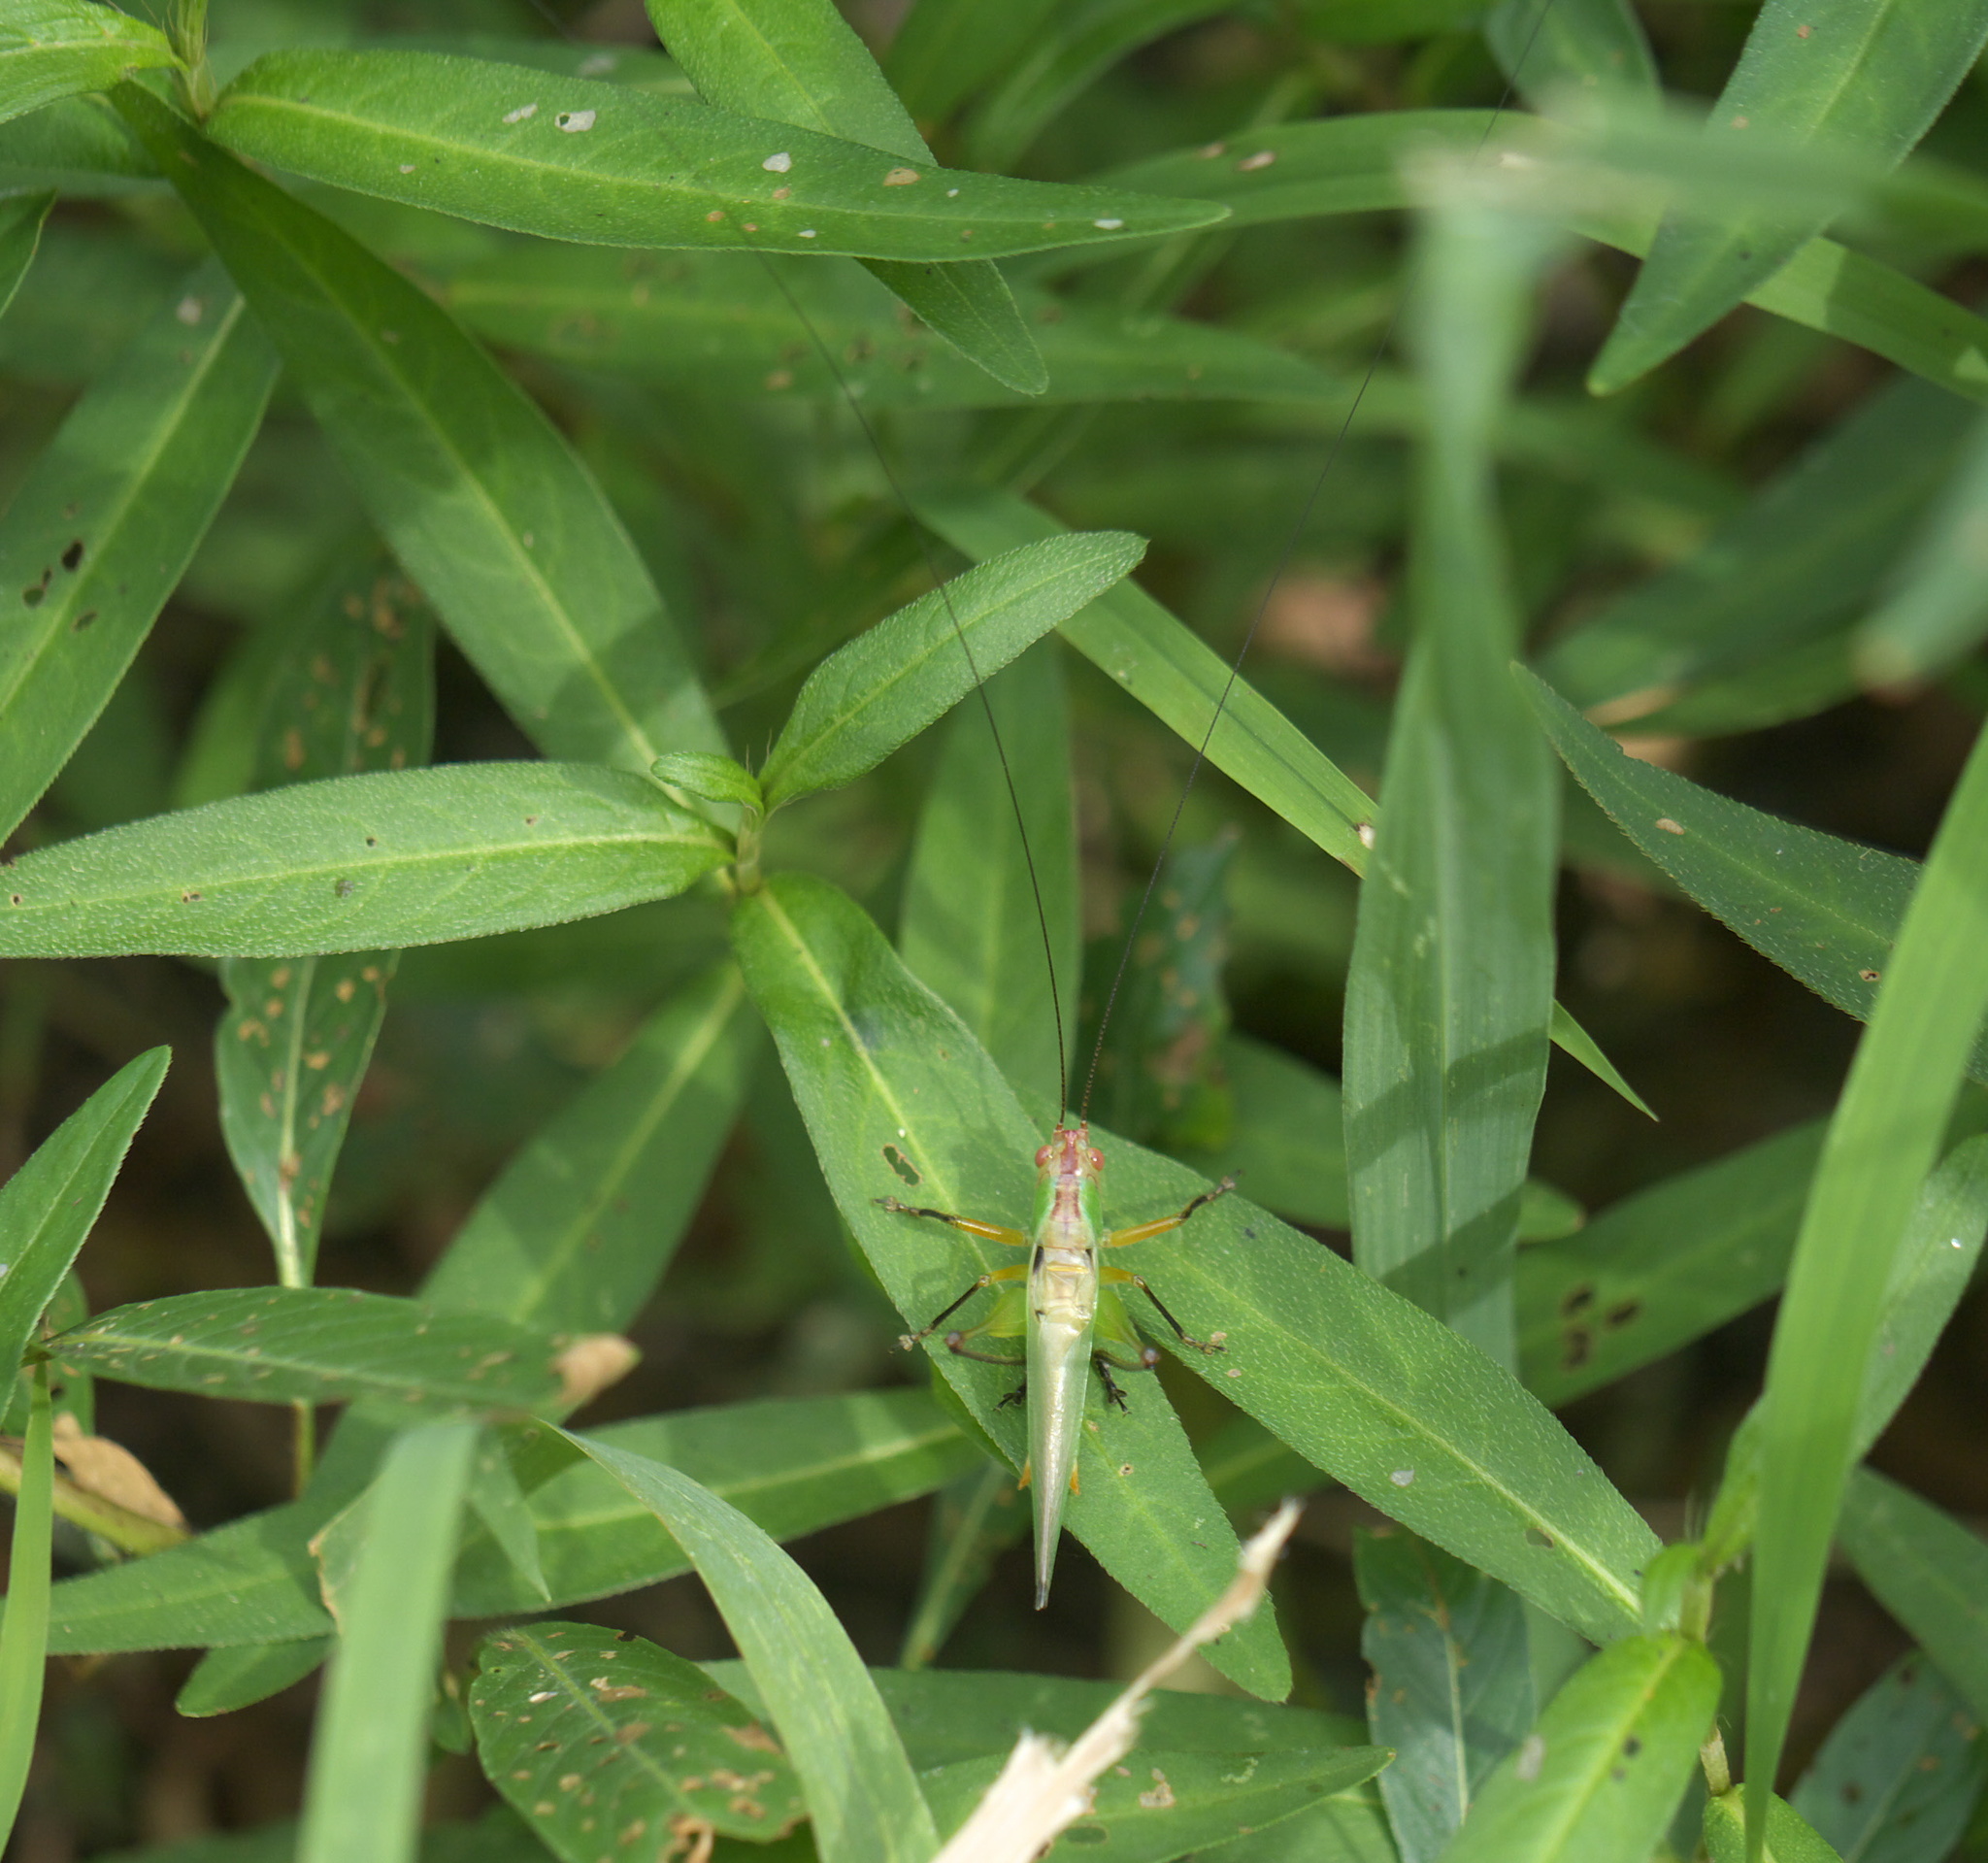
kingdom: Animalia
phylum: Arthropoda
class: Insecta
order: Orthoptera
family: Tettigoniidae
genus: Orchelimum
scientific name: Orchelimum nigripes
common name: Black-legged meadow katydid
